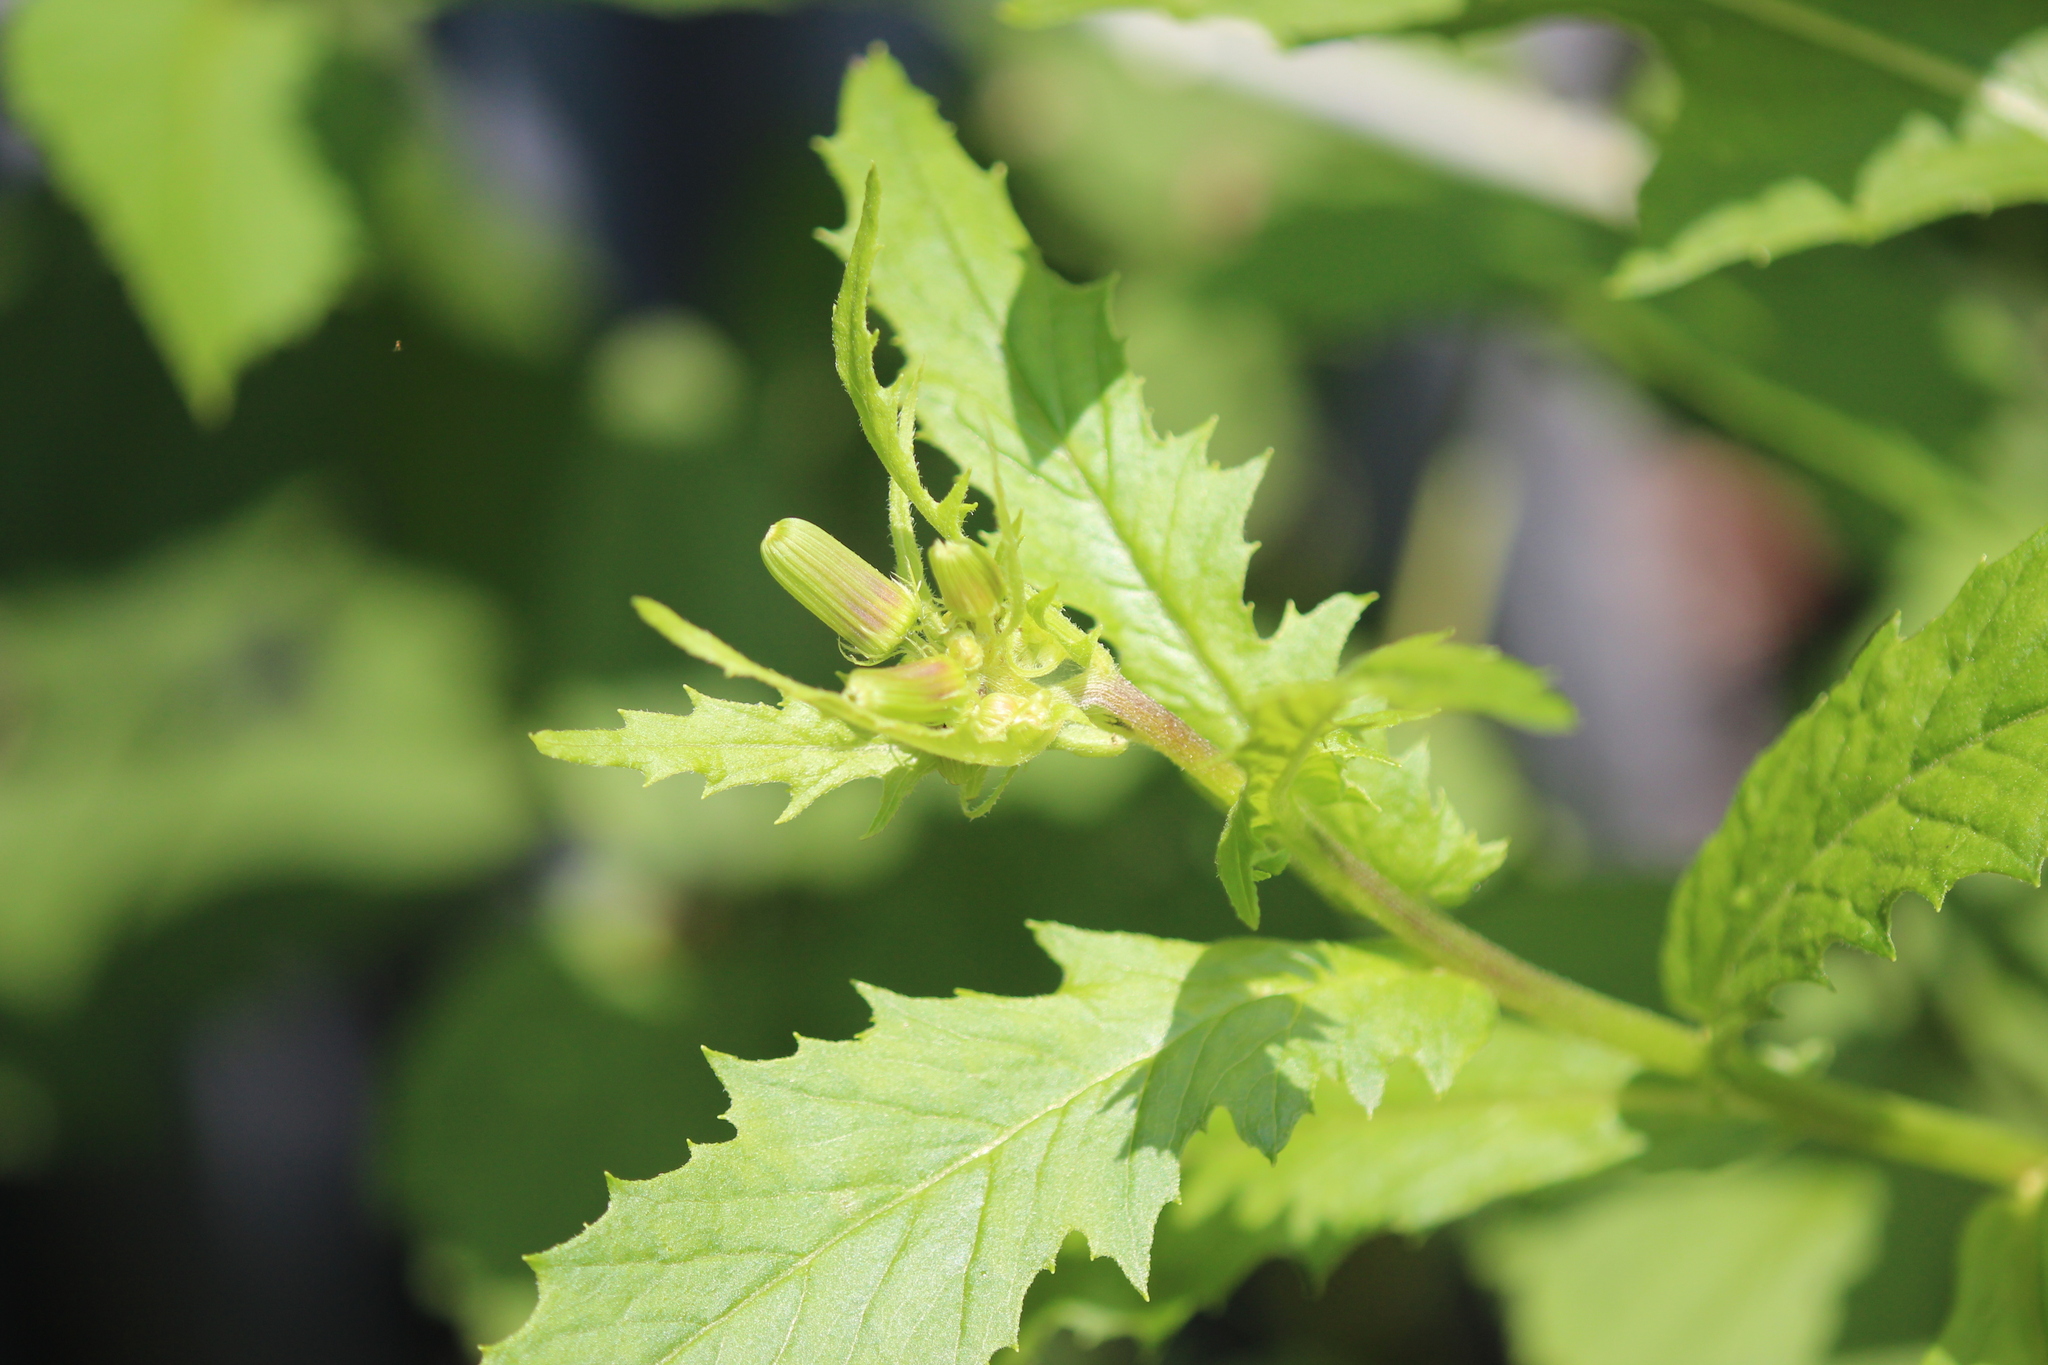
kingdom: Plantae
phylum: Tracheophyta
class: Magnoliopsida
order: Asterales
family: Asteraceae
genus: Erechtites
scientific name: Erechtites hieraciifolius
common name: American burnweed
